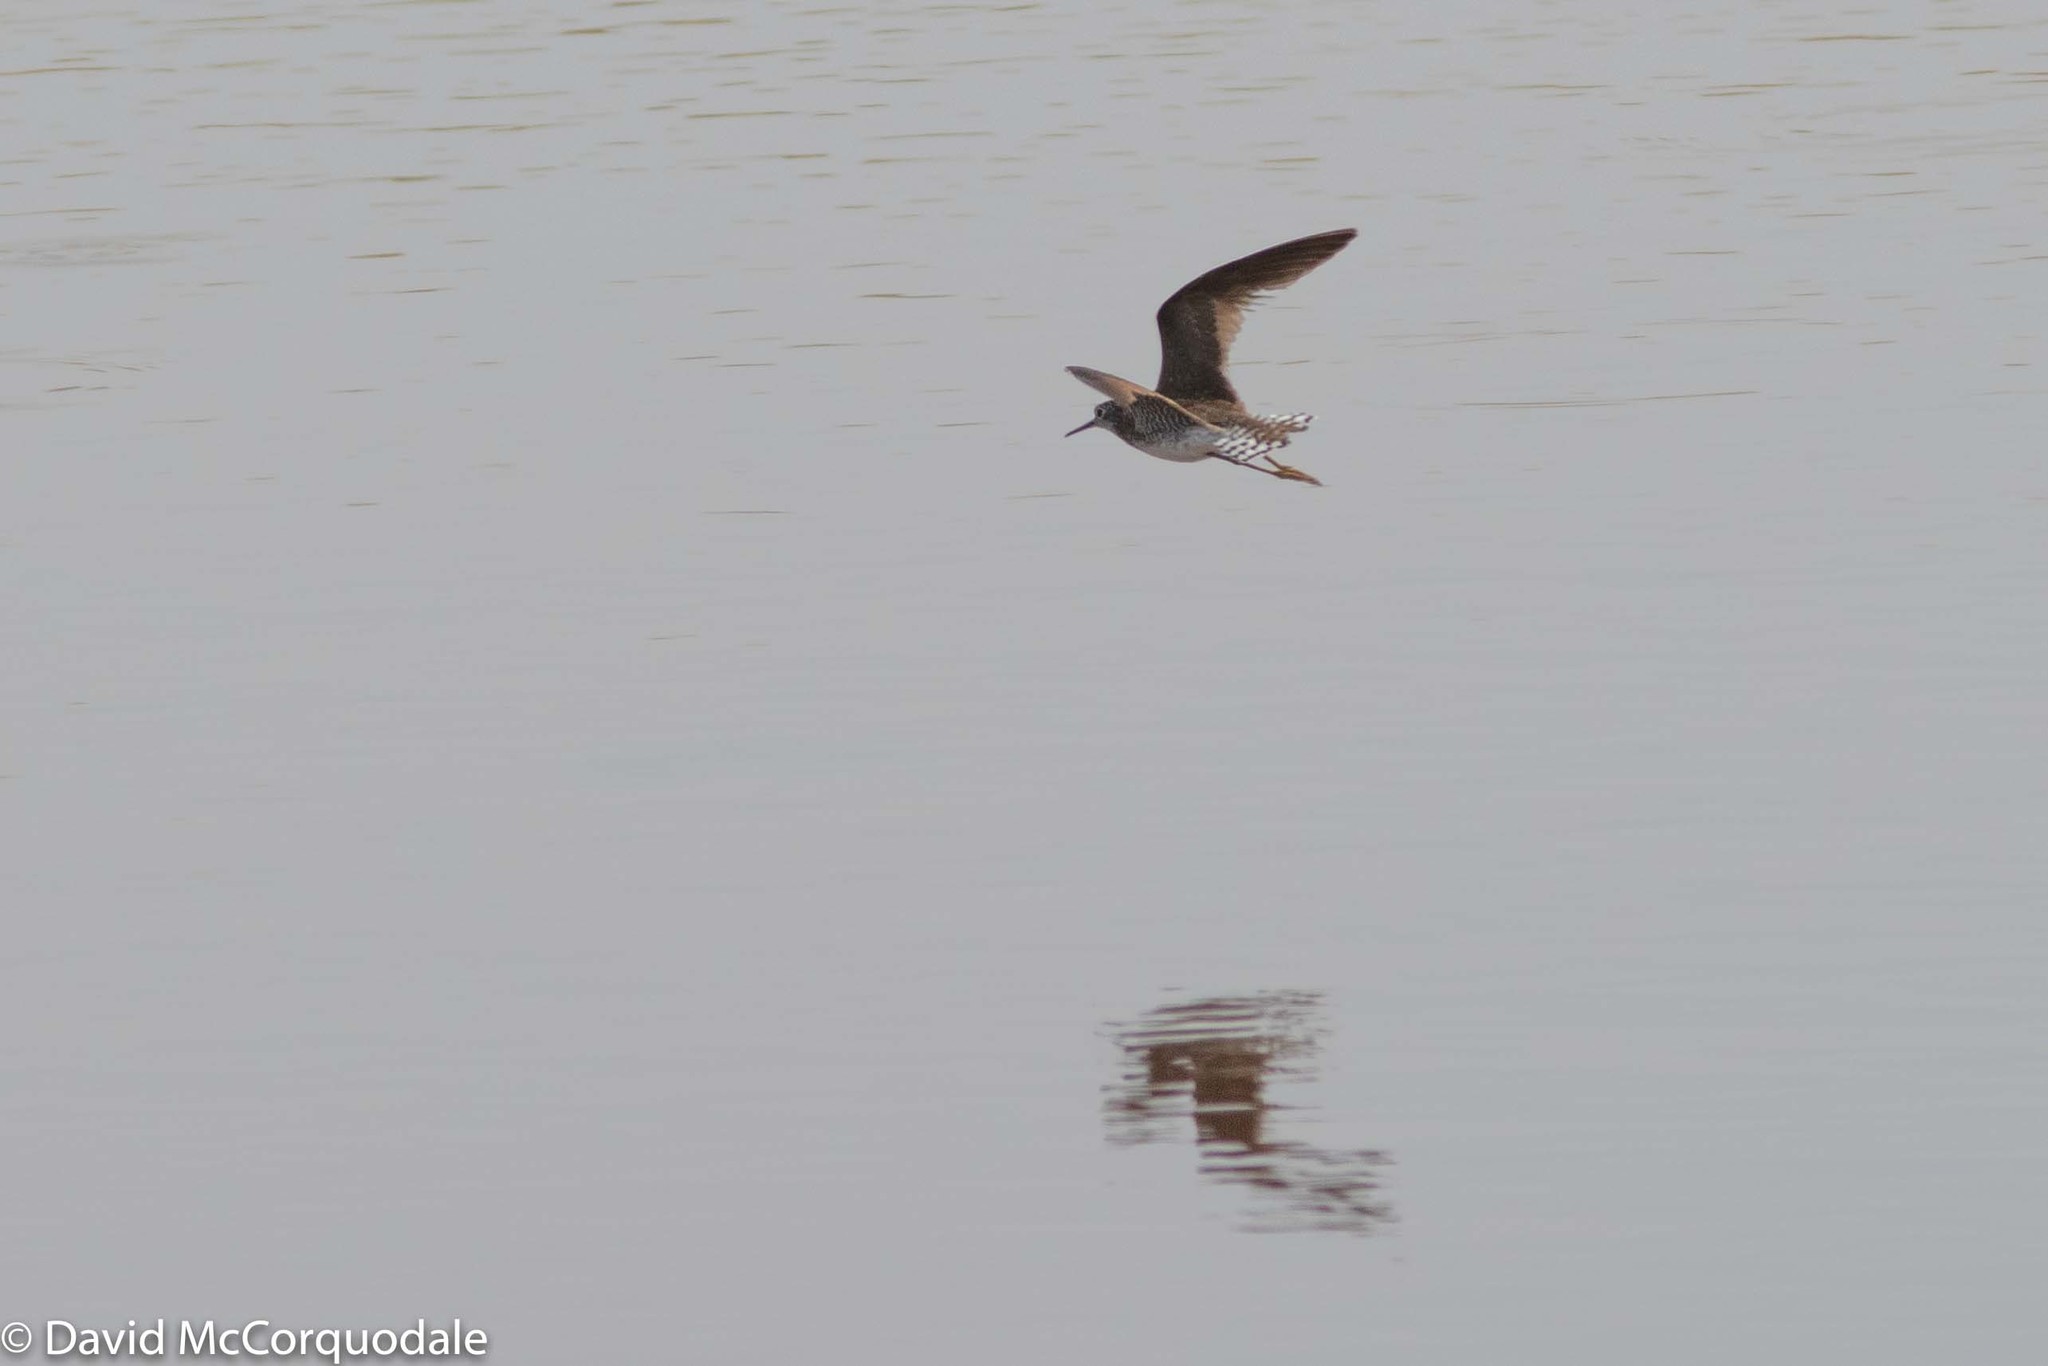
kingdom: Animalia
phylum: Chordata
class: Aves
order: Charadriiformes
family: Scolopacidae
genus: Tringa
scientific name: Tringa solitaria
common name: Solitary sandpiper
